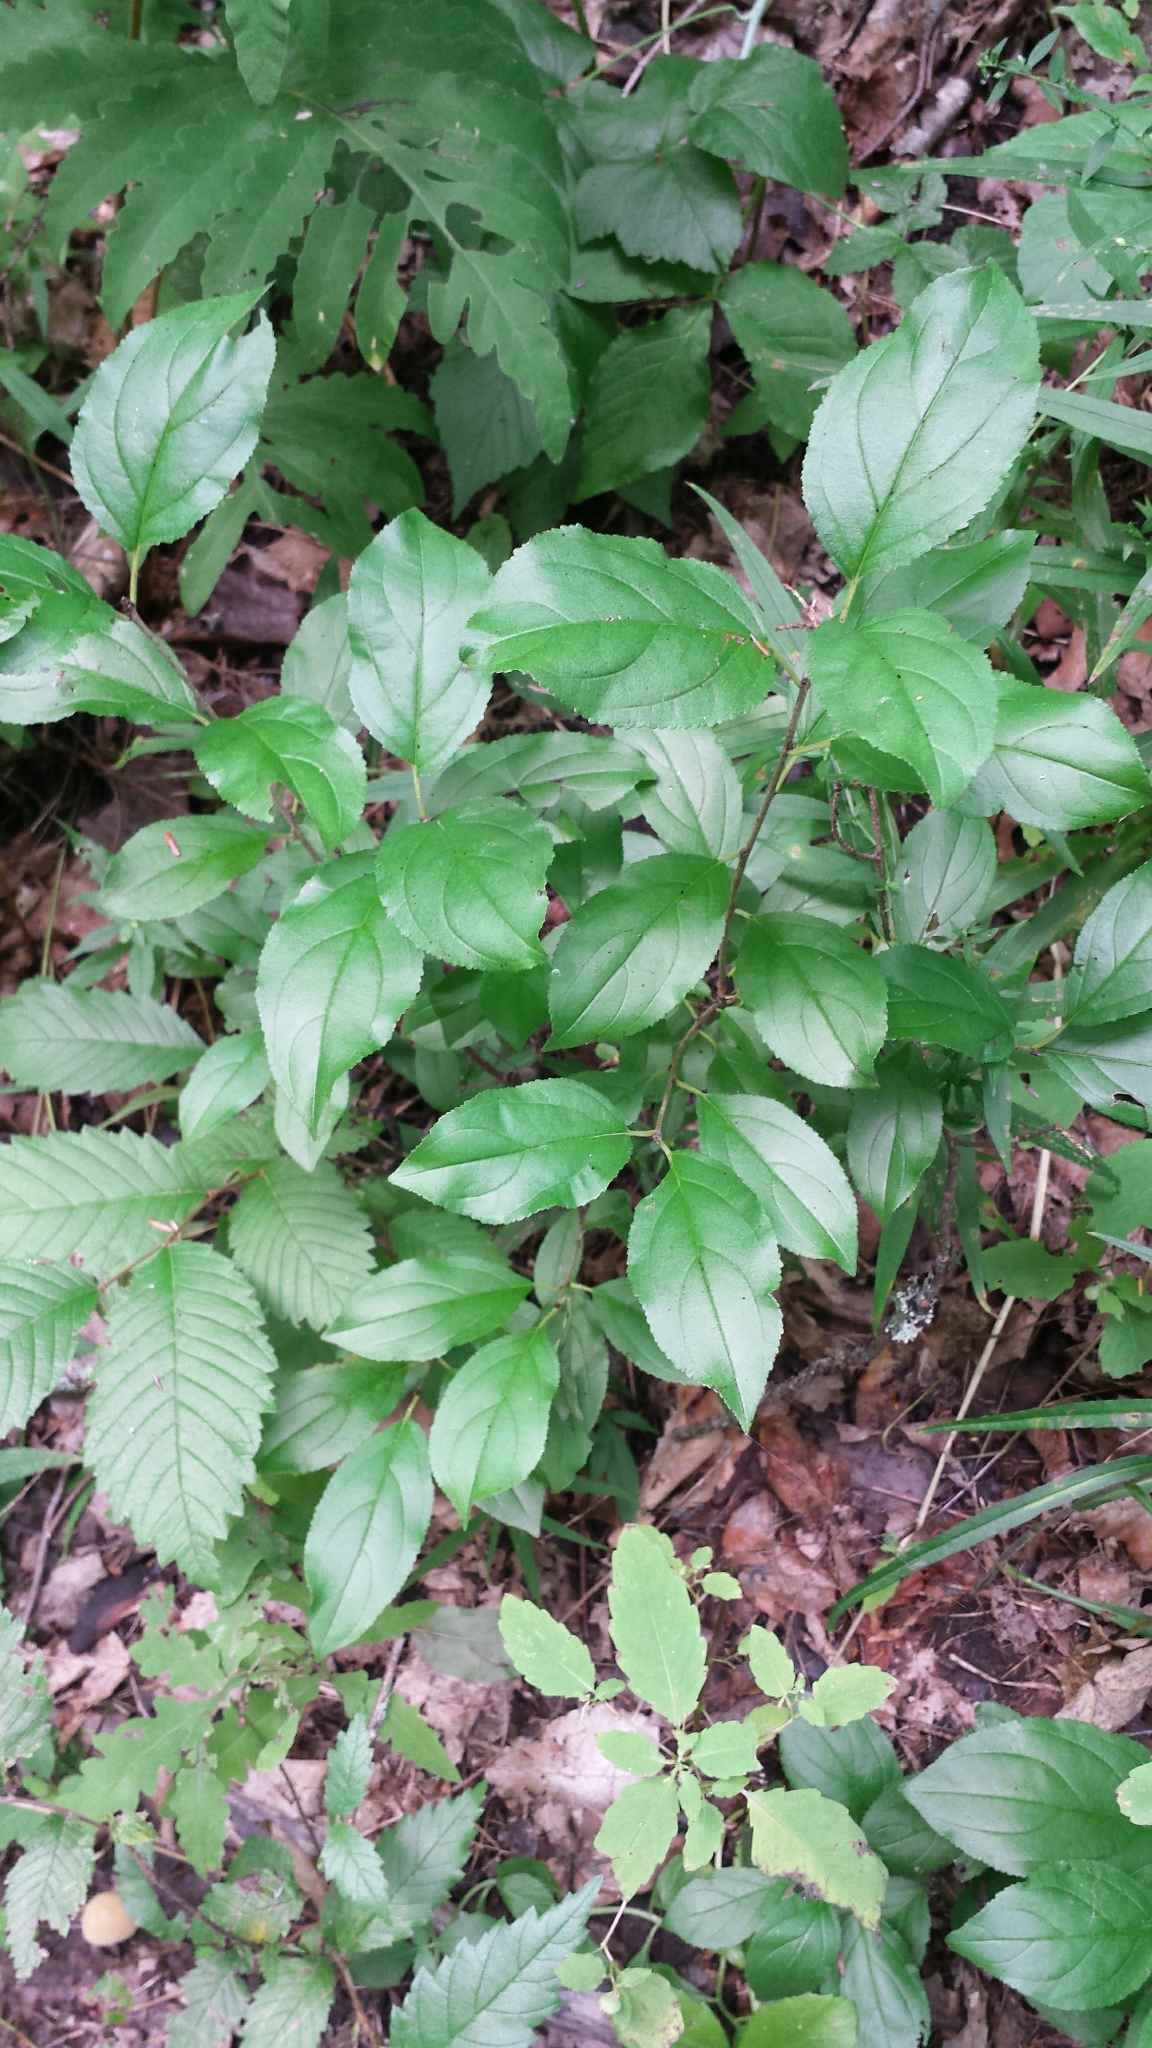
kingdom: Plantae
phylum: Tracheophyta
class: Magnoliopsida
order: Rosales
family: Rhamnaceae
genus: Rhamnus
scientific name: Rhamnus cathartica
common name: Common buckthorn
